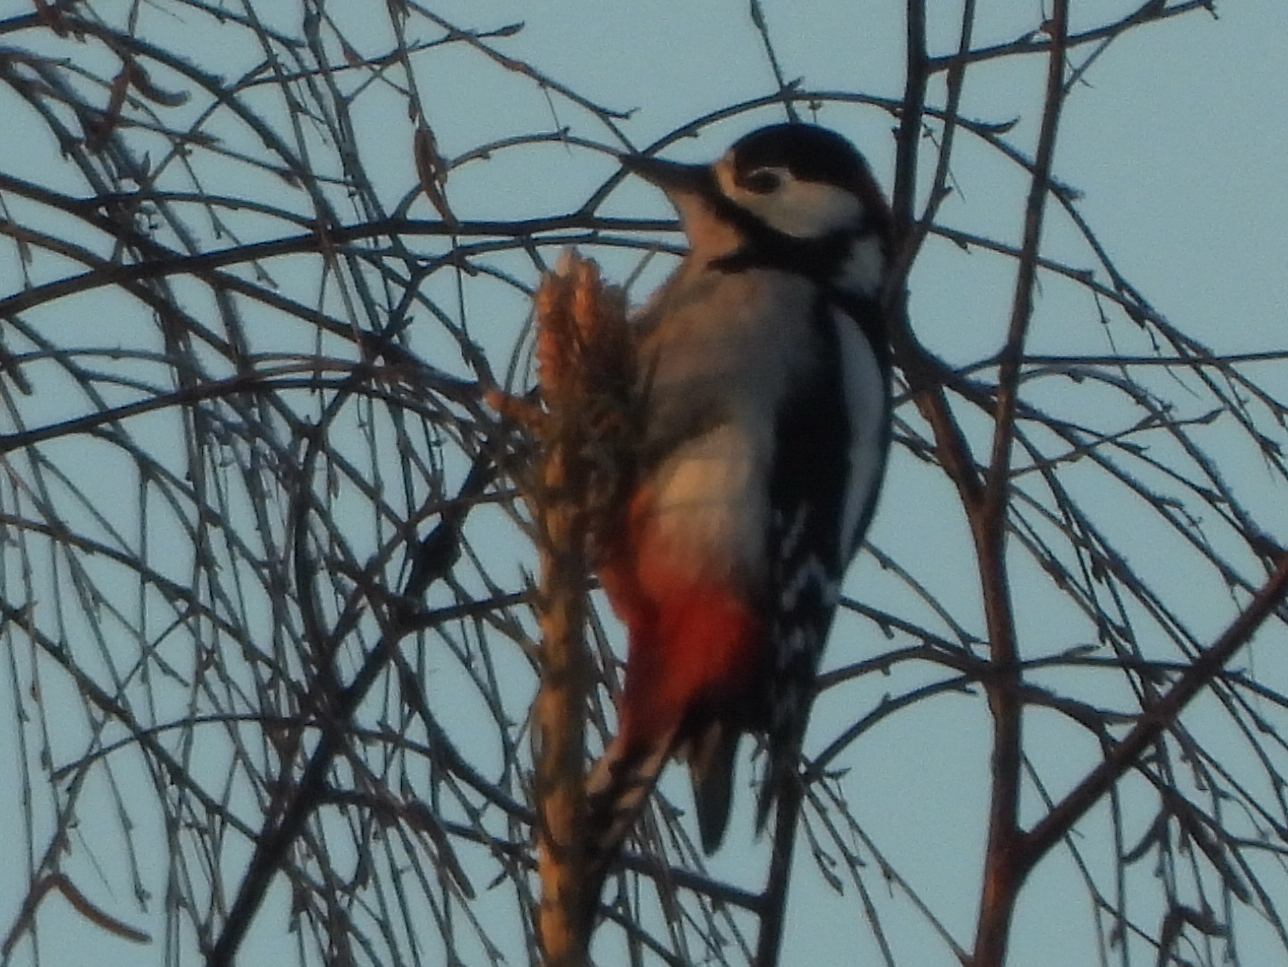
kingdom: Animalia
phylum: Chordata
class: Aves
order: Piciformes
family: Picidae
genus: Dendrocopos
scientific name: Dendrocopos major
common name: Great spotted woodpecker
